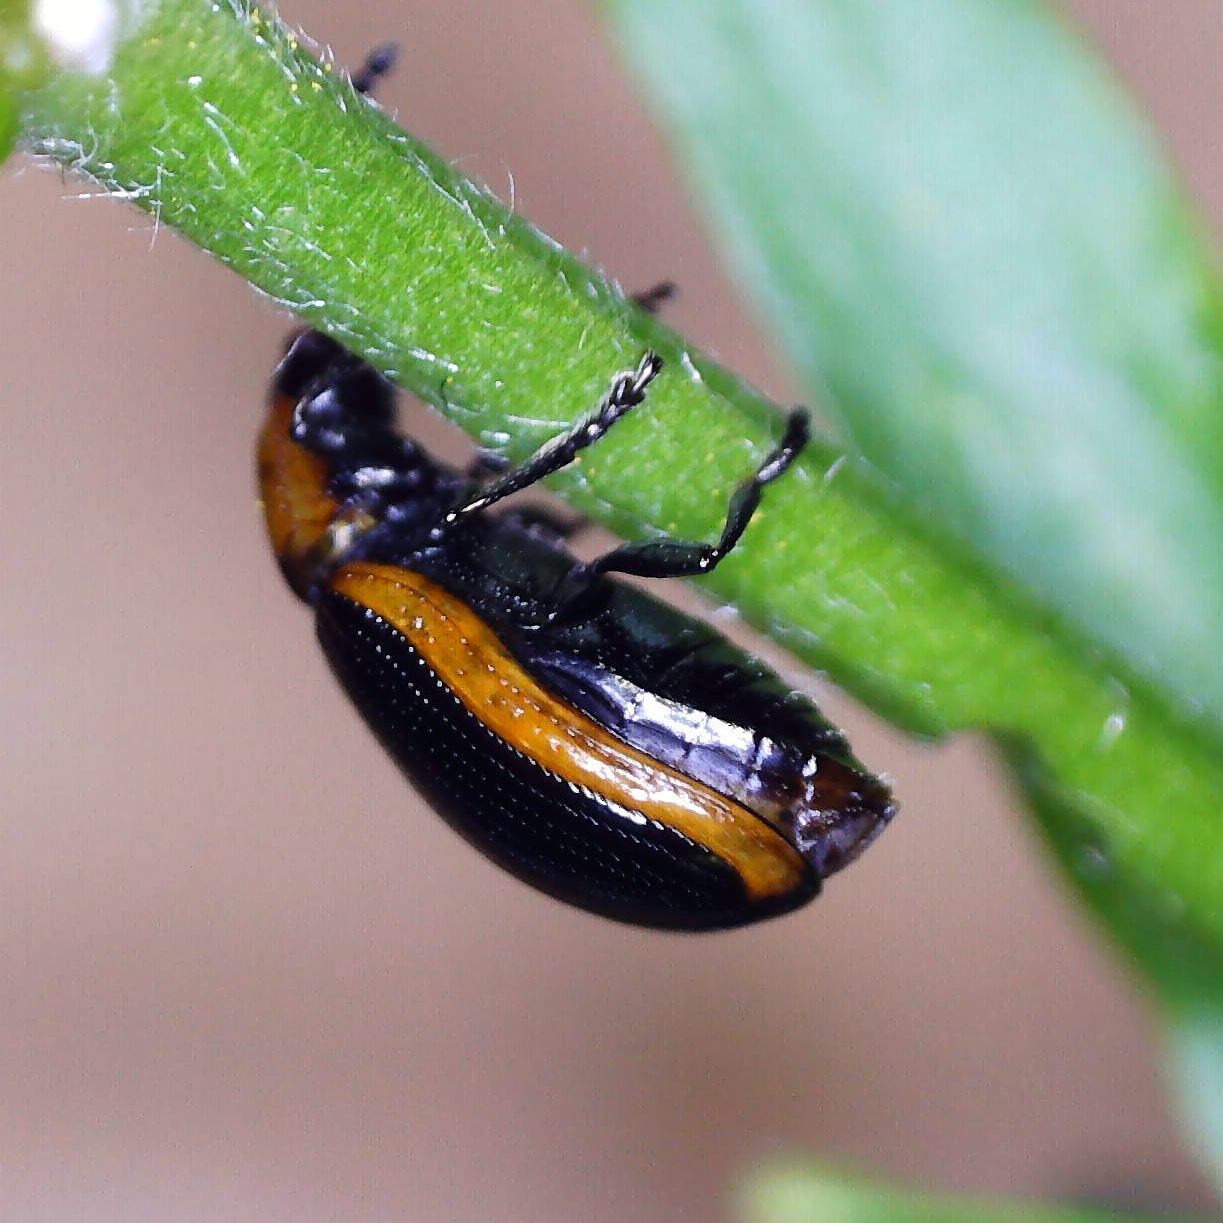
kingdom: Animalia
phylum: Arthropoda
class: Insecta
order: Coleoptera
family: Chrysomelidae
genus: Prasocuris
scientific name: Prasocuris marginella
